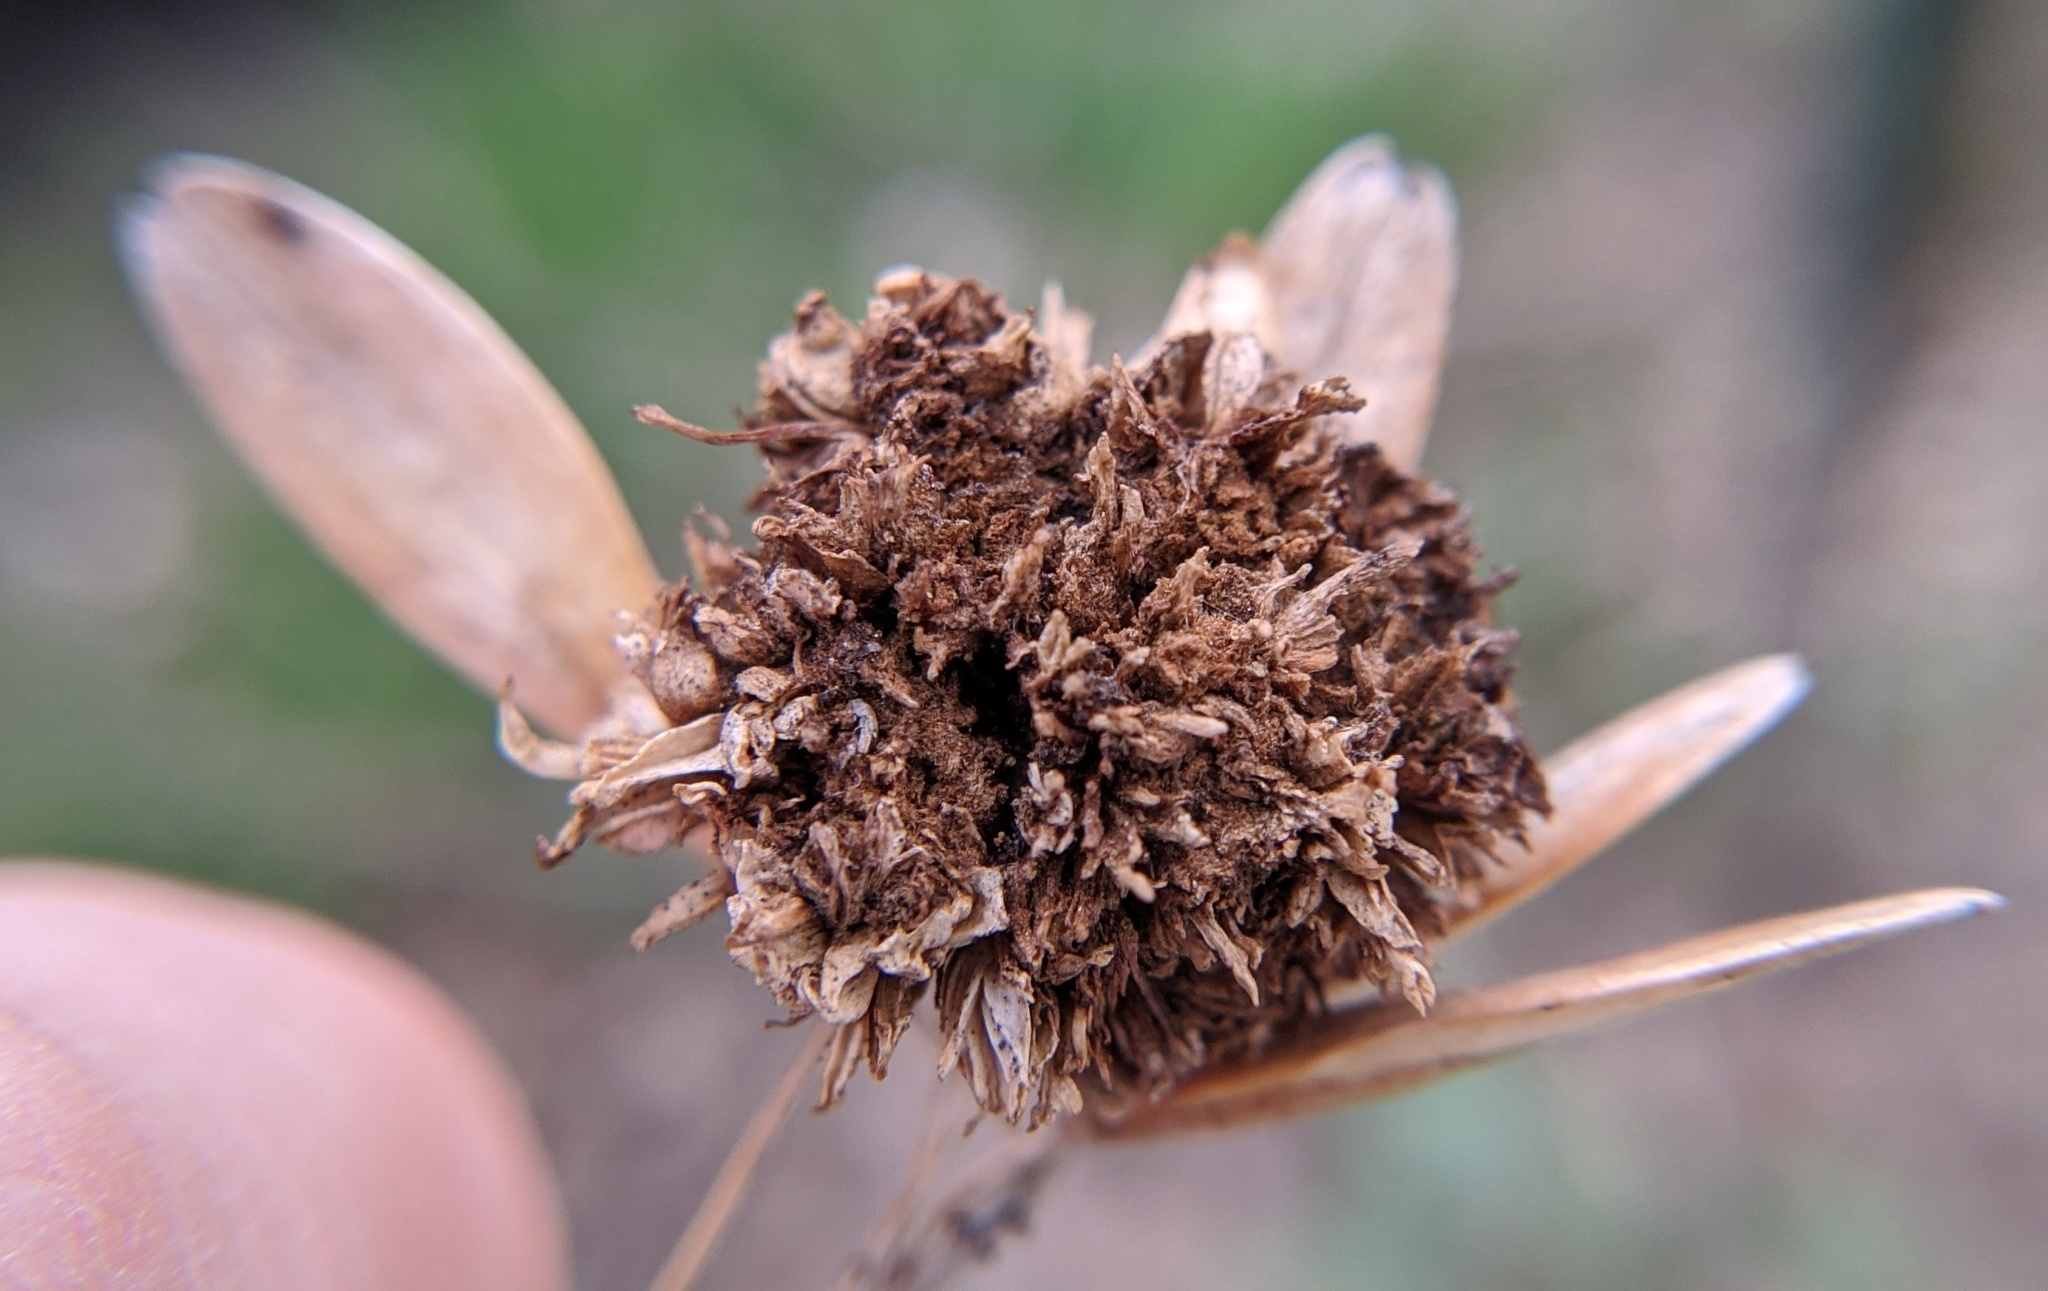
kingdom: Animalia
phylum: Arthropoda
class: Arachnida
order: Trombidiformes
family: Eriophyidae
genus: Aceria
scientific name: Aceria fraxiniflora
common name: Ash flower gall mite
